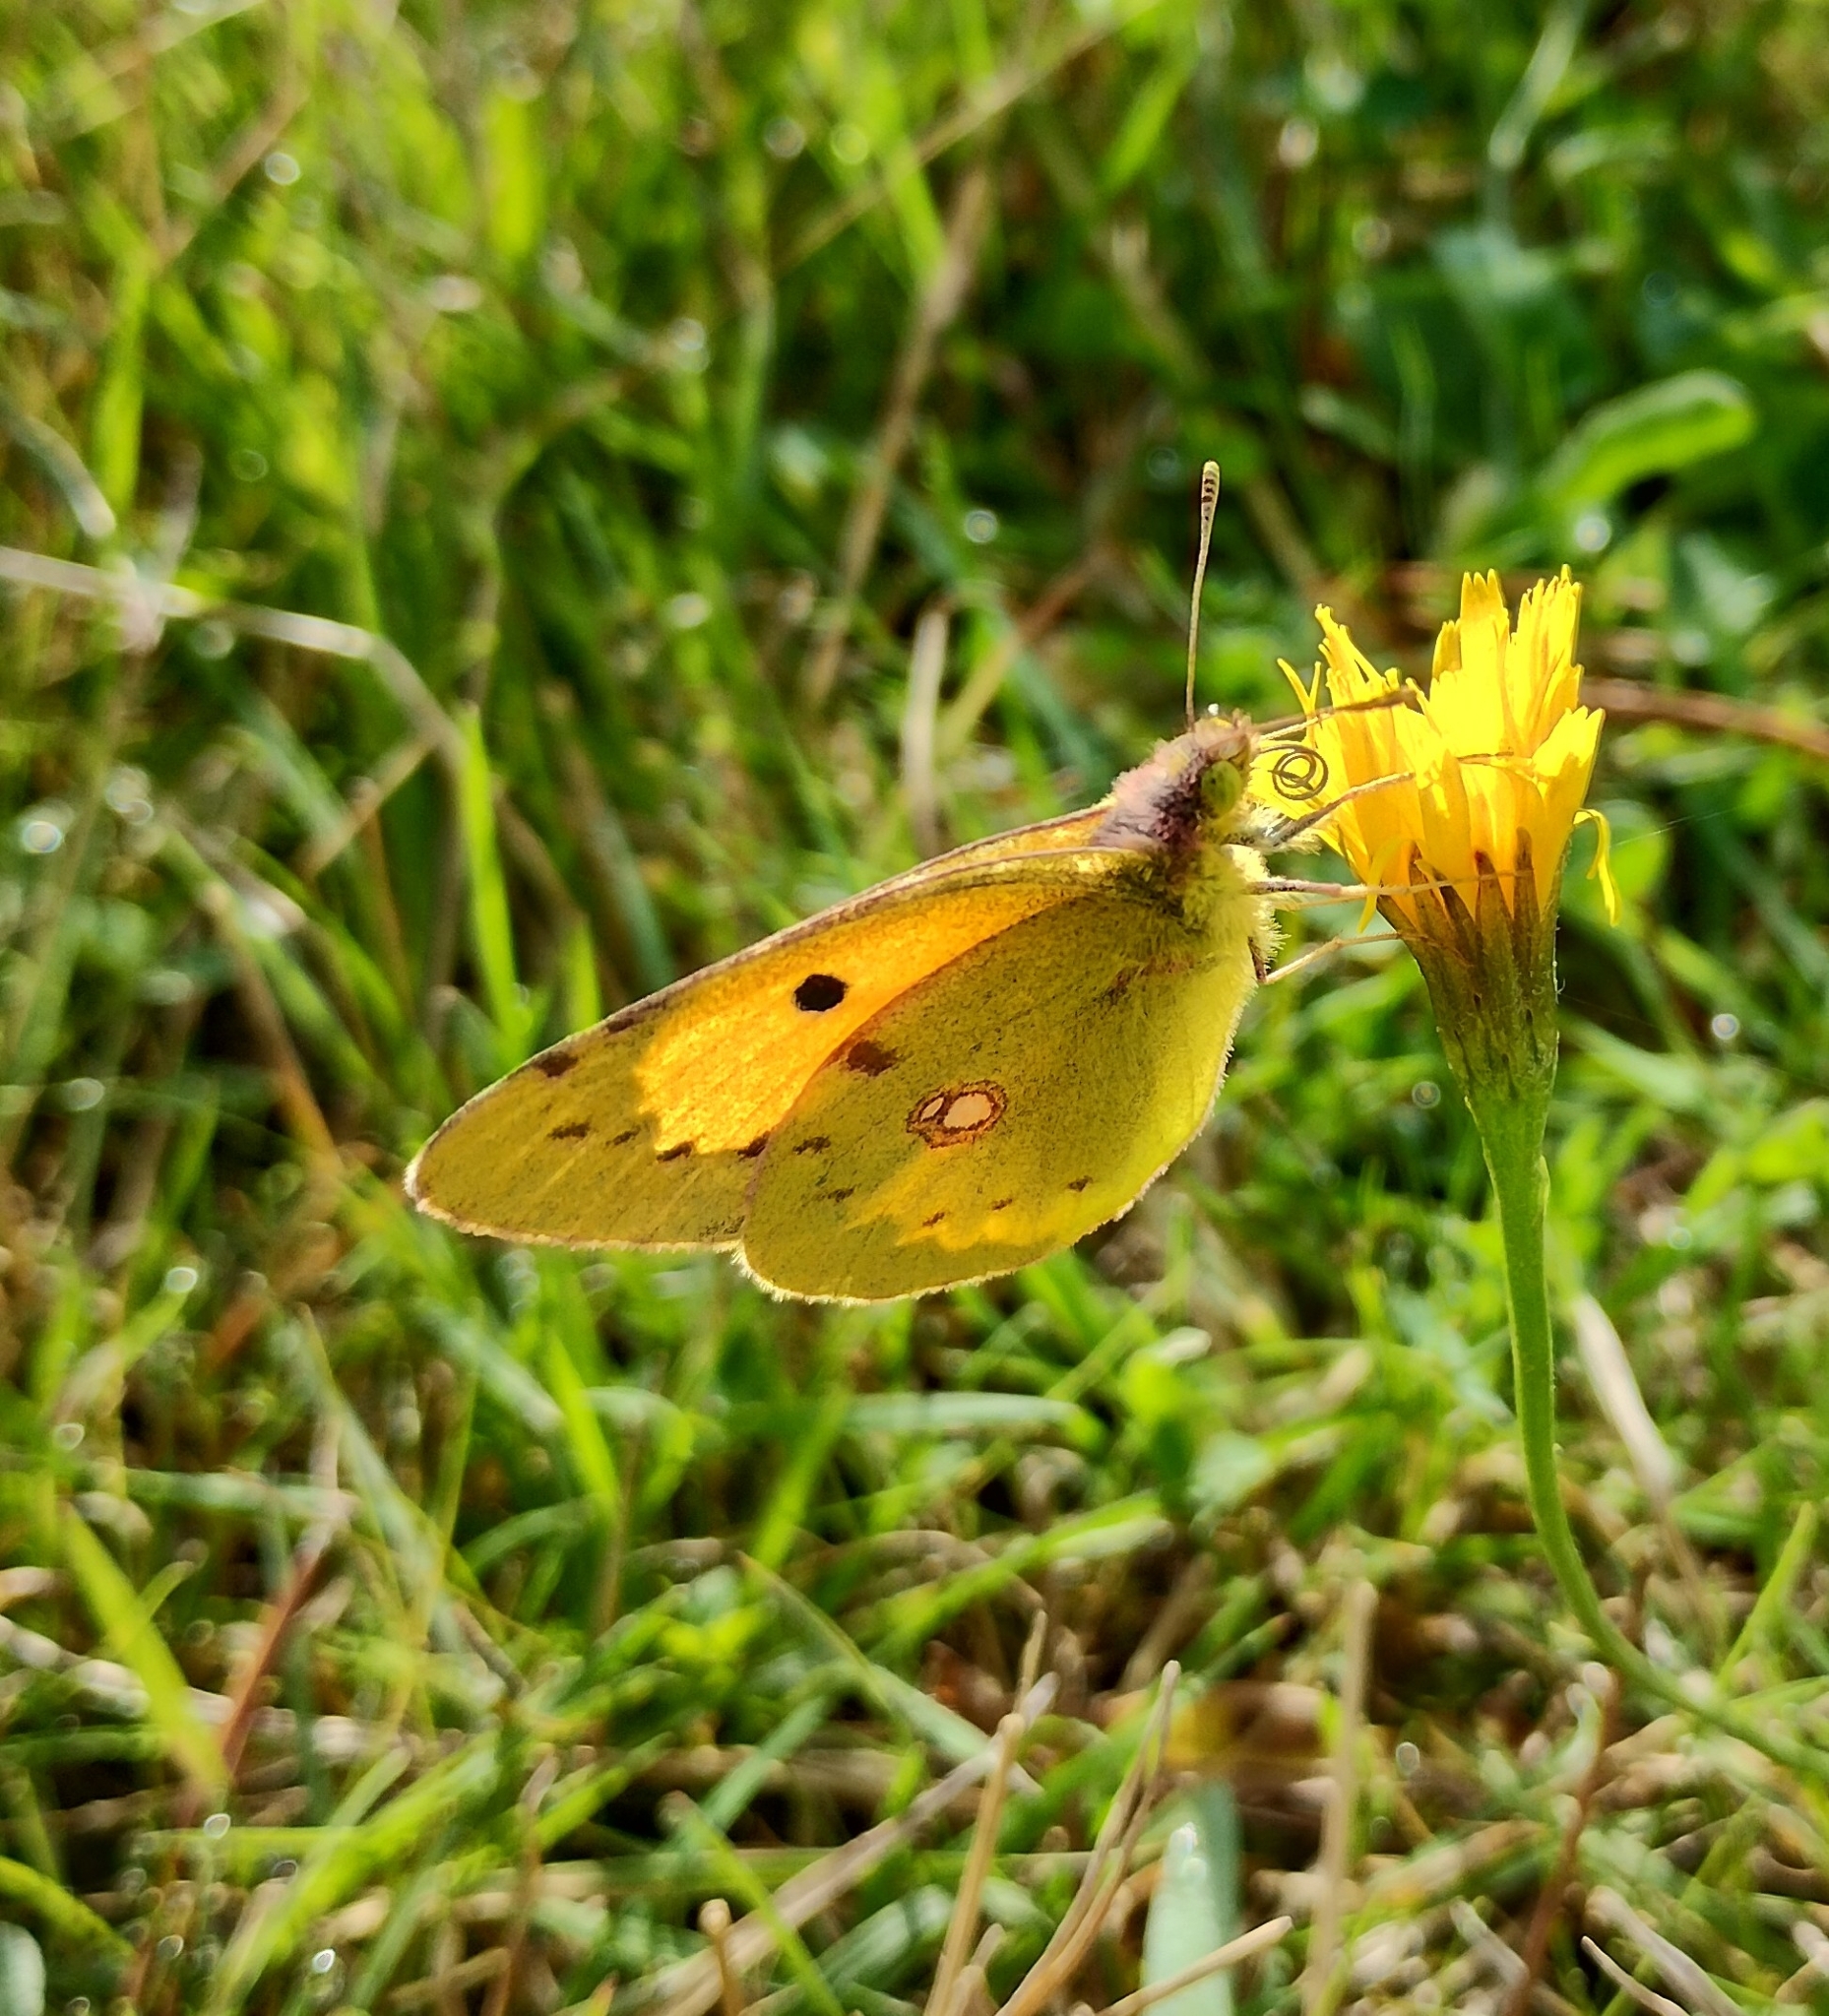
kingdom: Animalia
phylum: Arthropoda
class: Insecta
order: Lepidoptera
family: Pieridae
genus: Colias
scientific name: Colias croceus
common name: Clouded yellow
